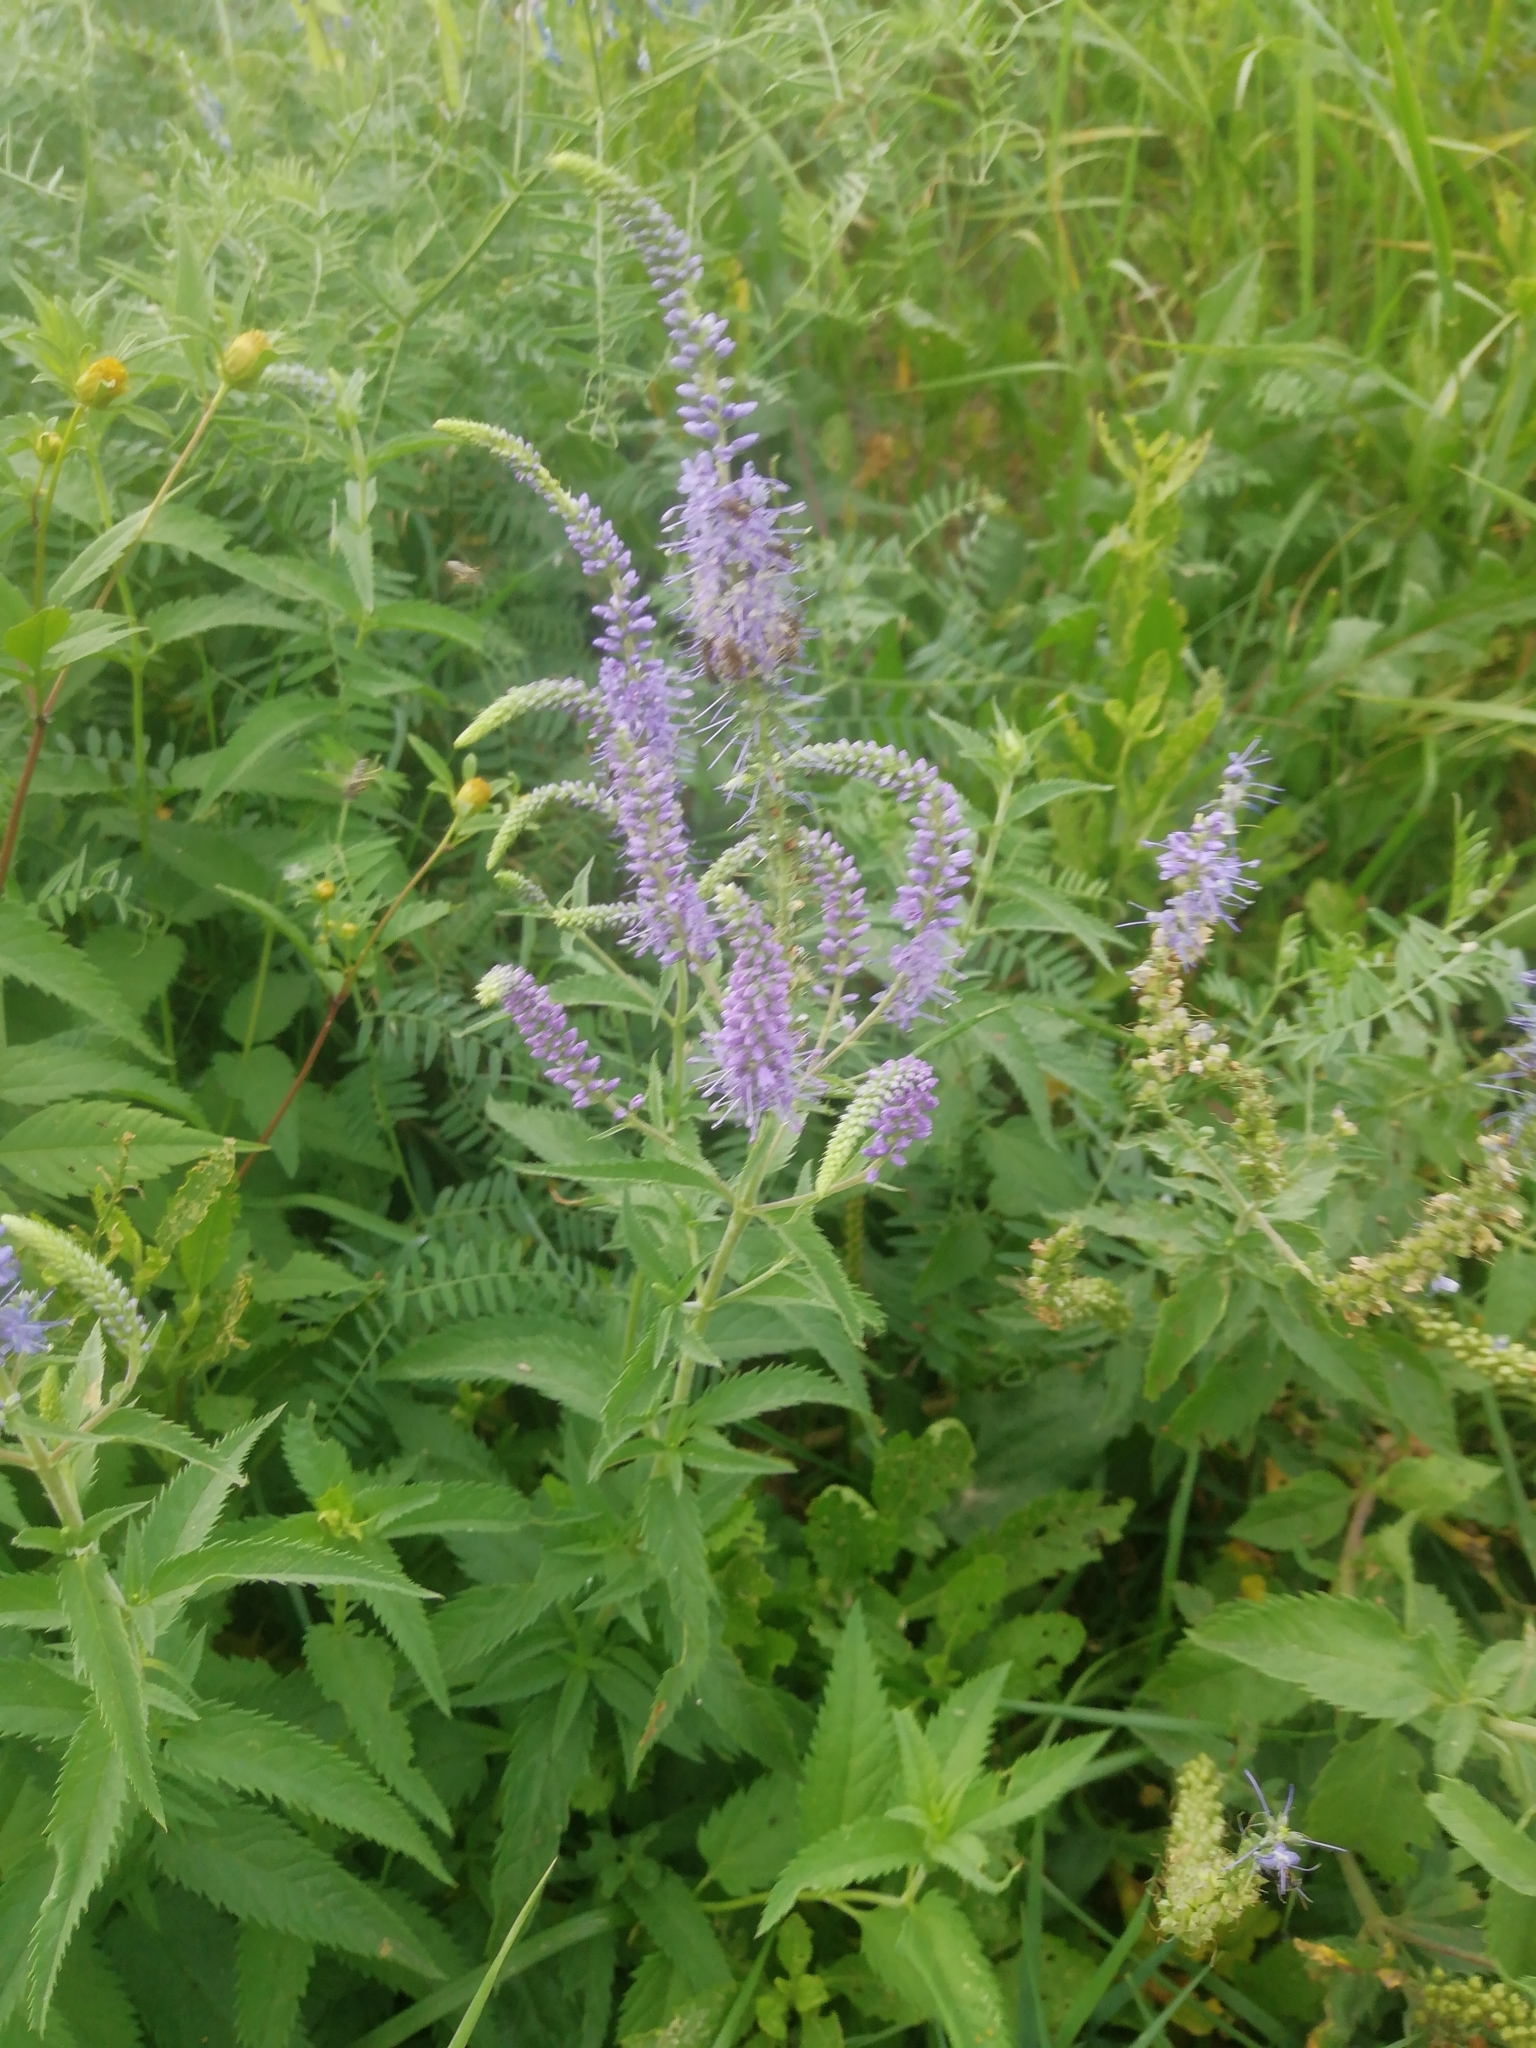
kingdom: Plantae
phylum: Tracheophyta
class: Magnoliopsida
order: Lamiales
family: Plantaginaceae
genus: Veronica
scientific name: Veronica longifolia
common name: Garden speedwell
